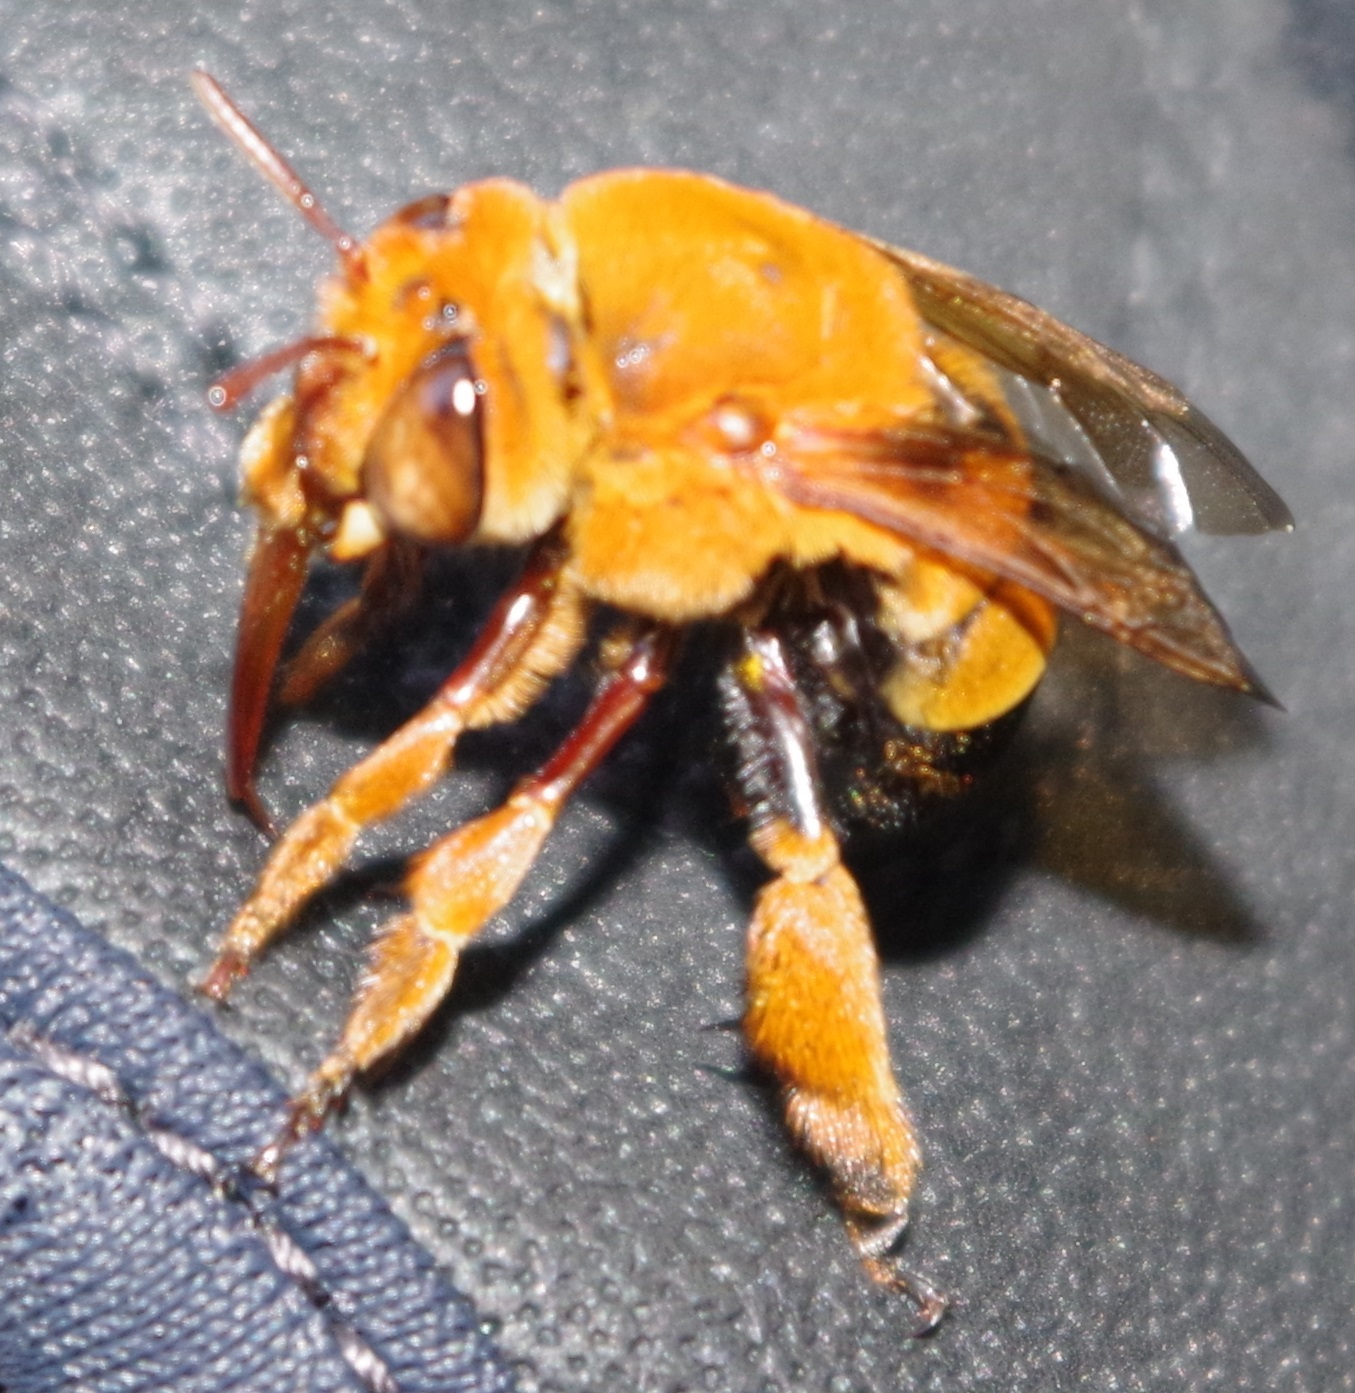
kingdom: Animalia
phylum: Arthropoda
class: Insecta
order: Hymenoptera
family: Apidae
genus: Amegilla
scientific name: Amegilla himalajensis
